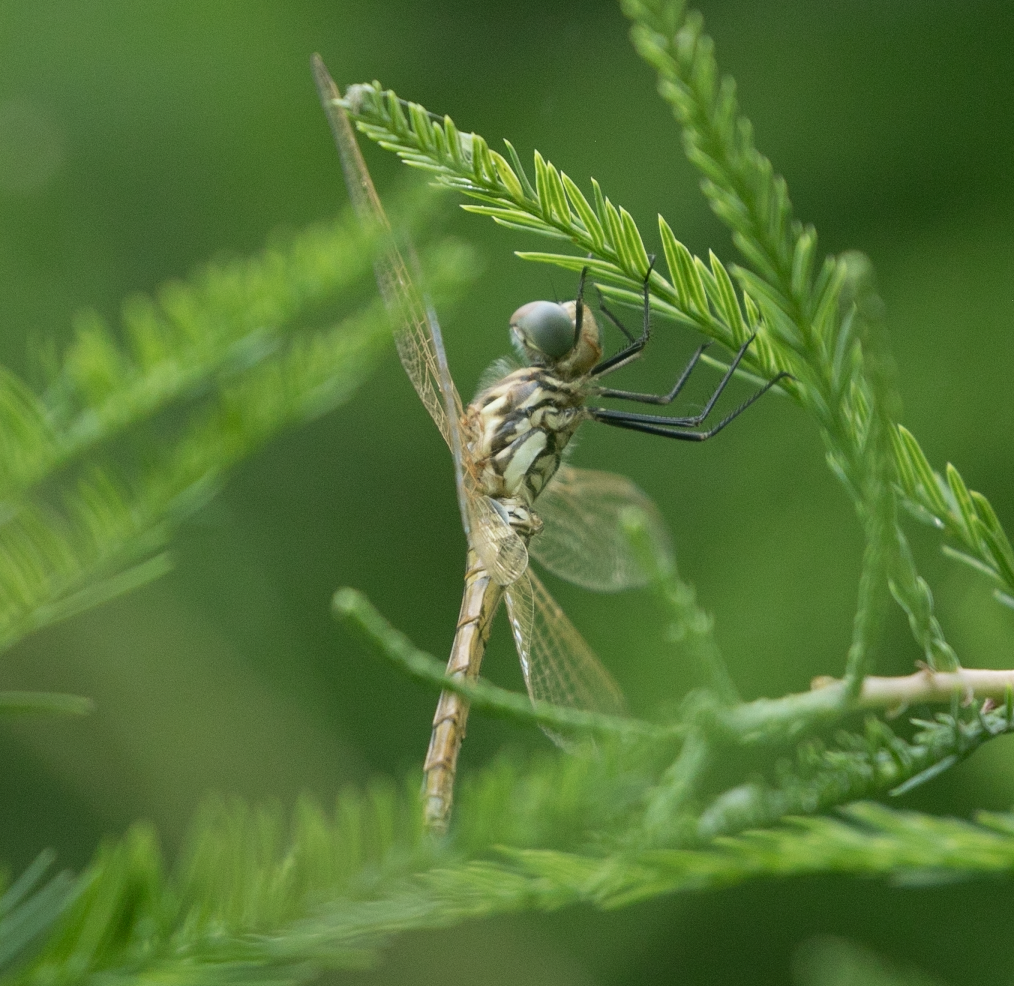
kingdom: Animalia
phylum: Arthropoda
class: Insecta
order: Odonata
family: Libellulidae
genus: Trithemis
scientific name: Trithemis annulata
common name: Violet dropwing
